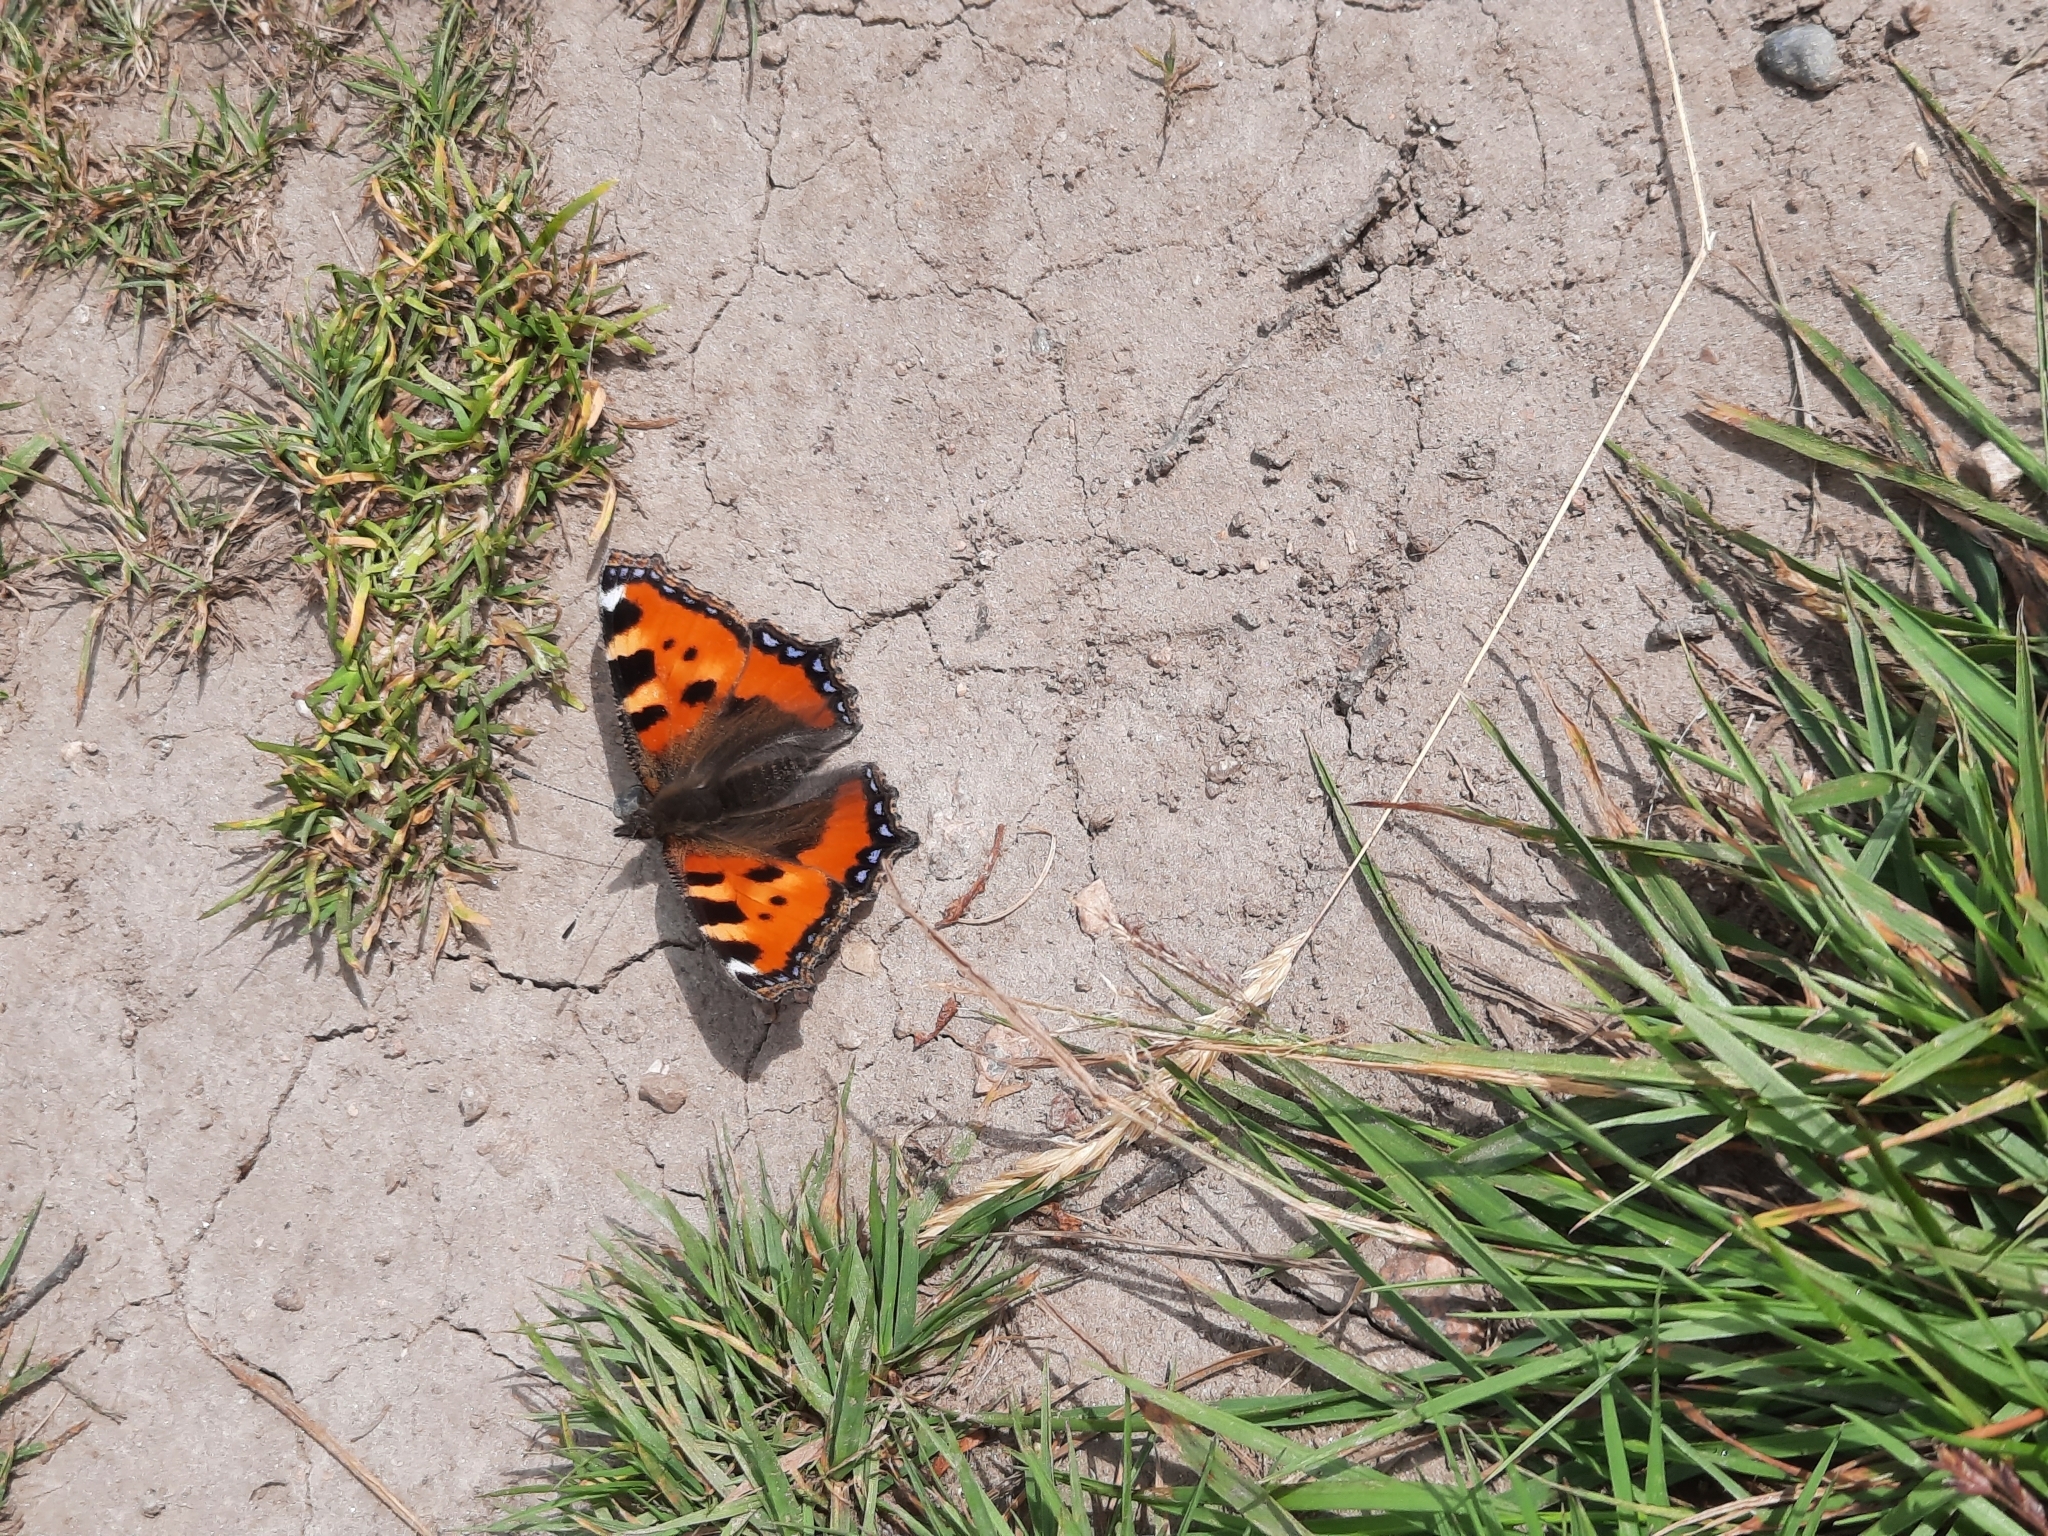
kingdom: Animalia
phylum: Arthropoda
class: Insecta
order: Lepidoptera
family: Nymphalidae
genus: Aglais
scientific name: Aglais urticae
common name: Small tortoiseshell
